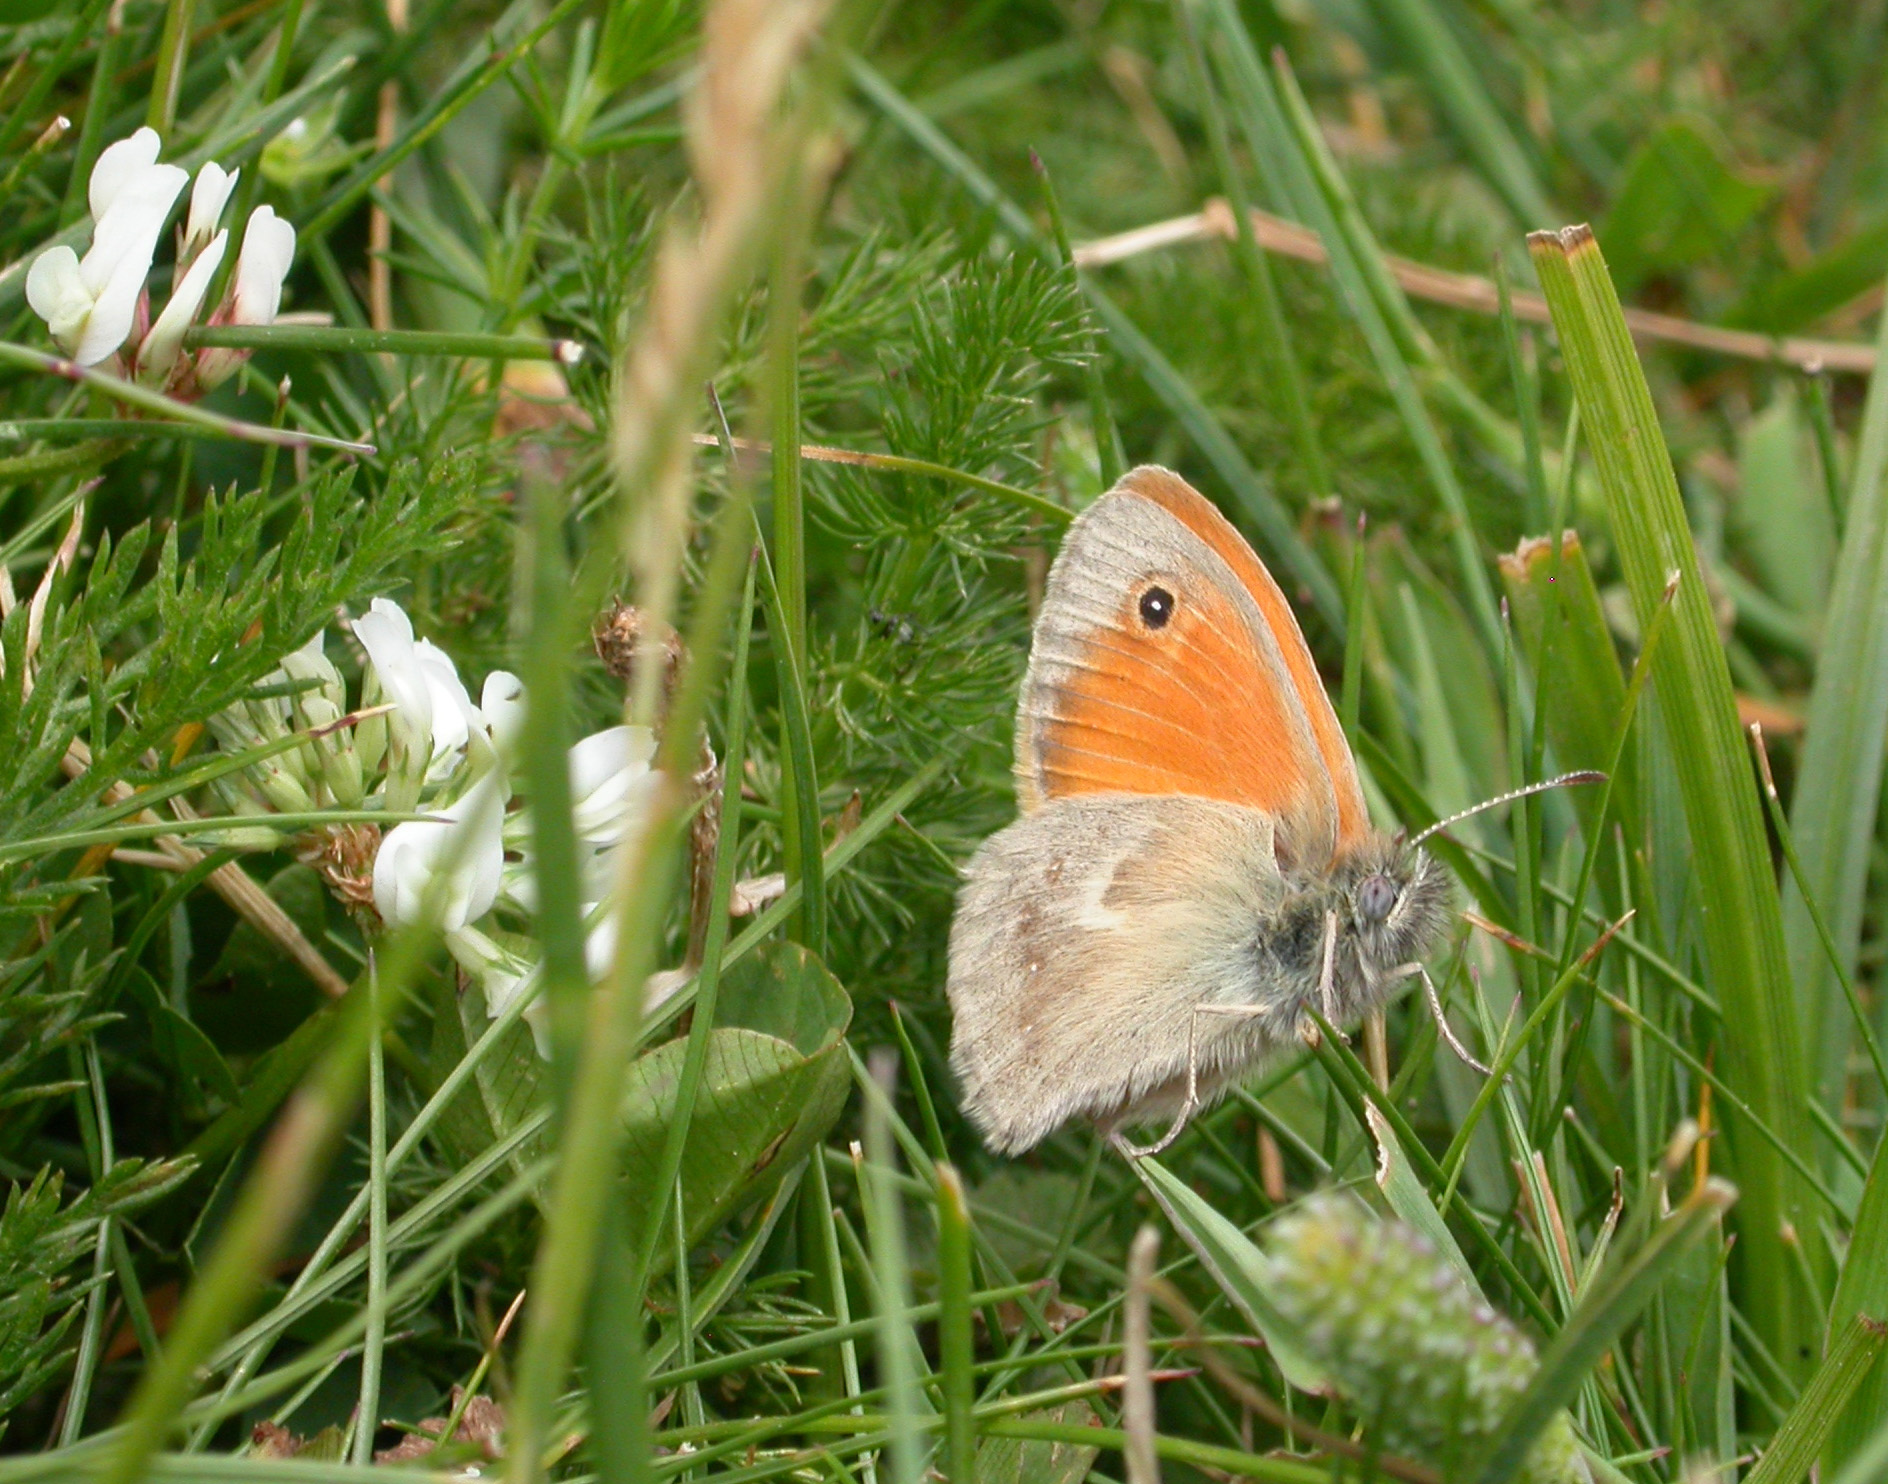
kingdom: Animalia
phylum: Arthropoda
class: Insecta
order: Lepidoptera
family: Nymphalidae
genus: Coenonympha
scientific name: Coenonympha pamphilus
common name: Small heath
